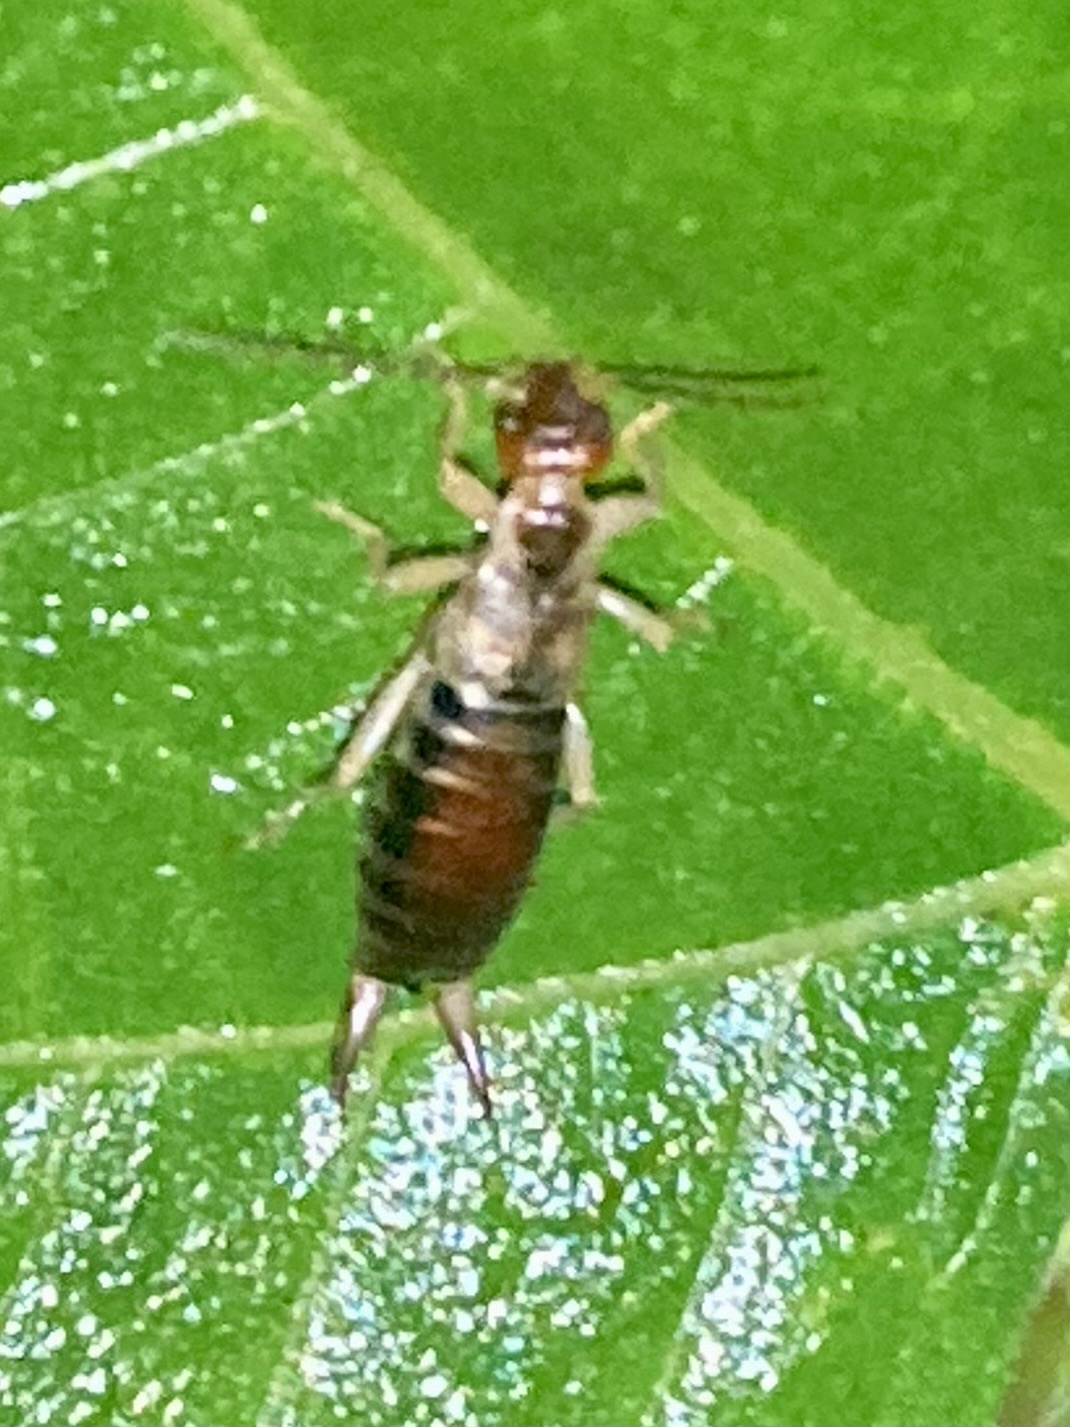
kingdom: Animalia
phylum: Arthropoda
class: Insecta
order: Dermaptera
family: Forficulidae
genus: Forficula
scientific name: Forficula decipiens
